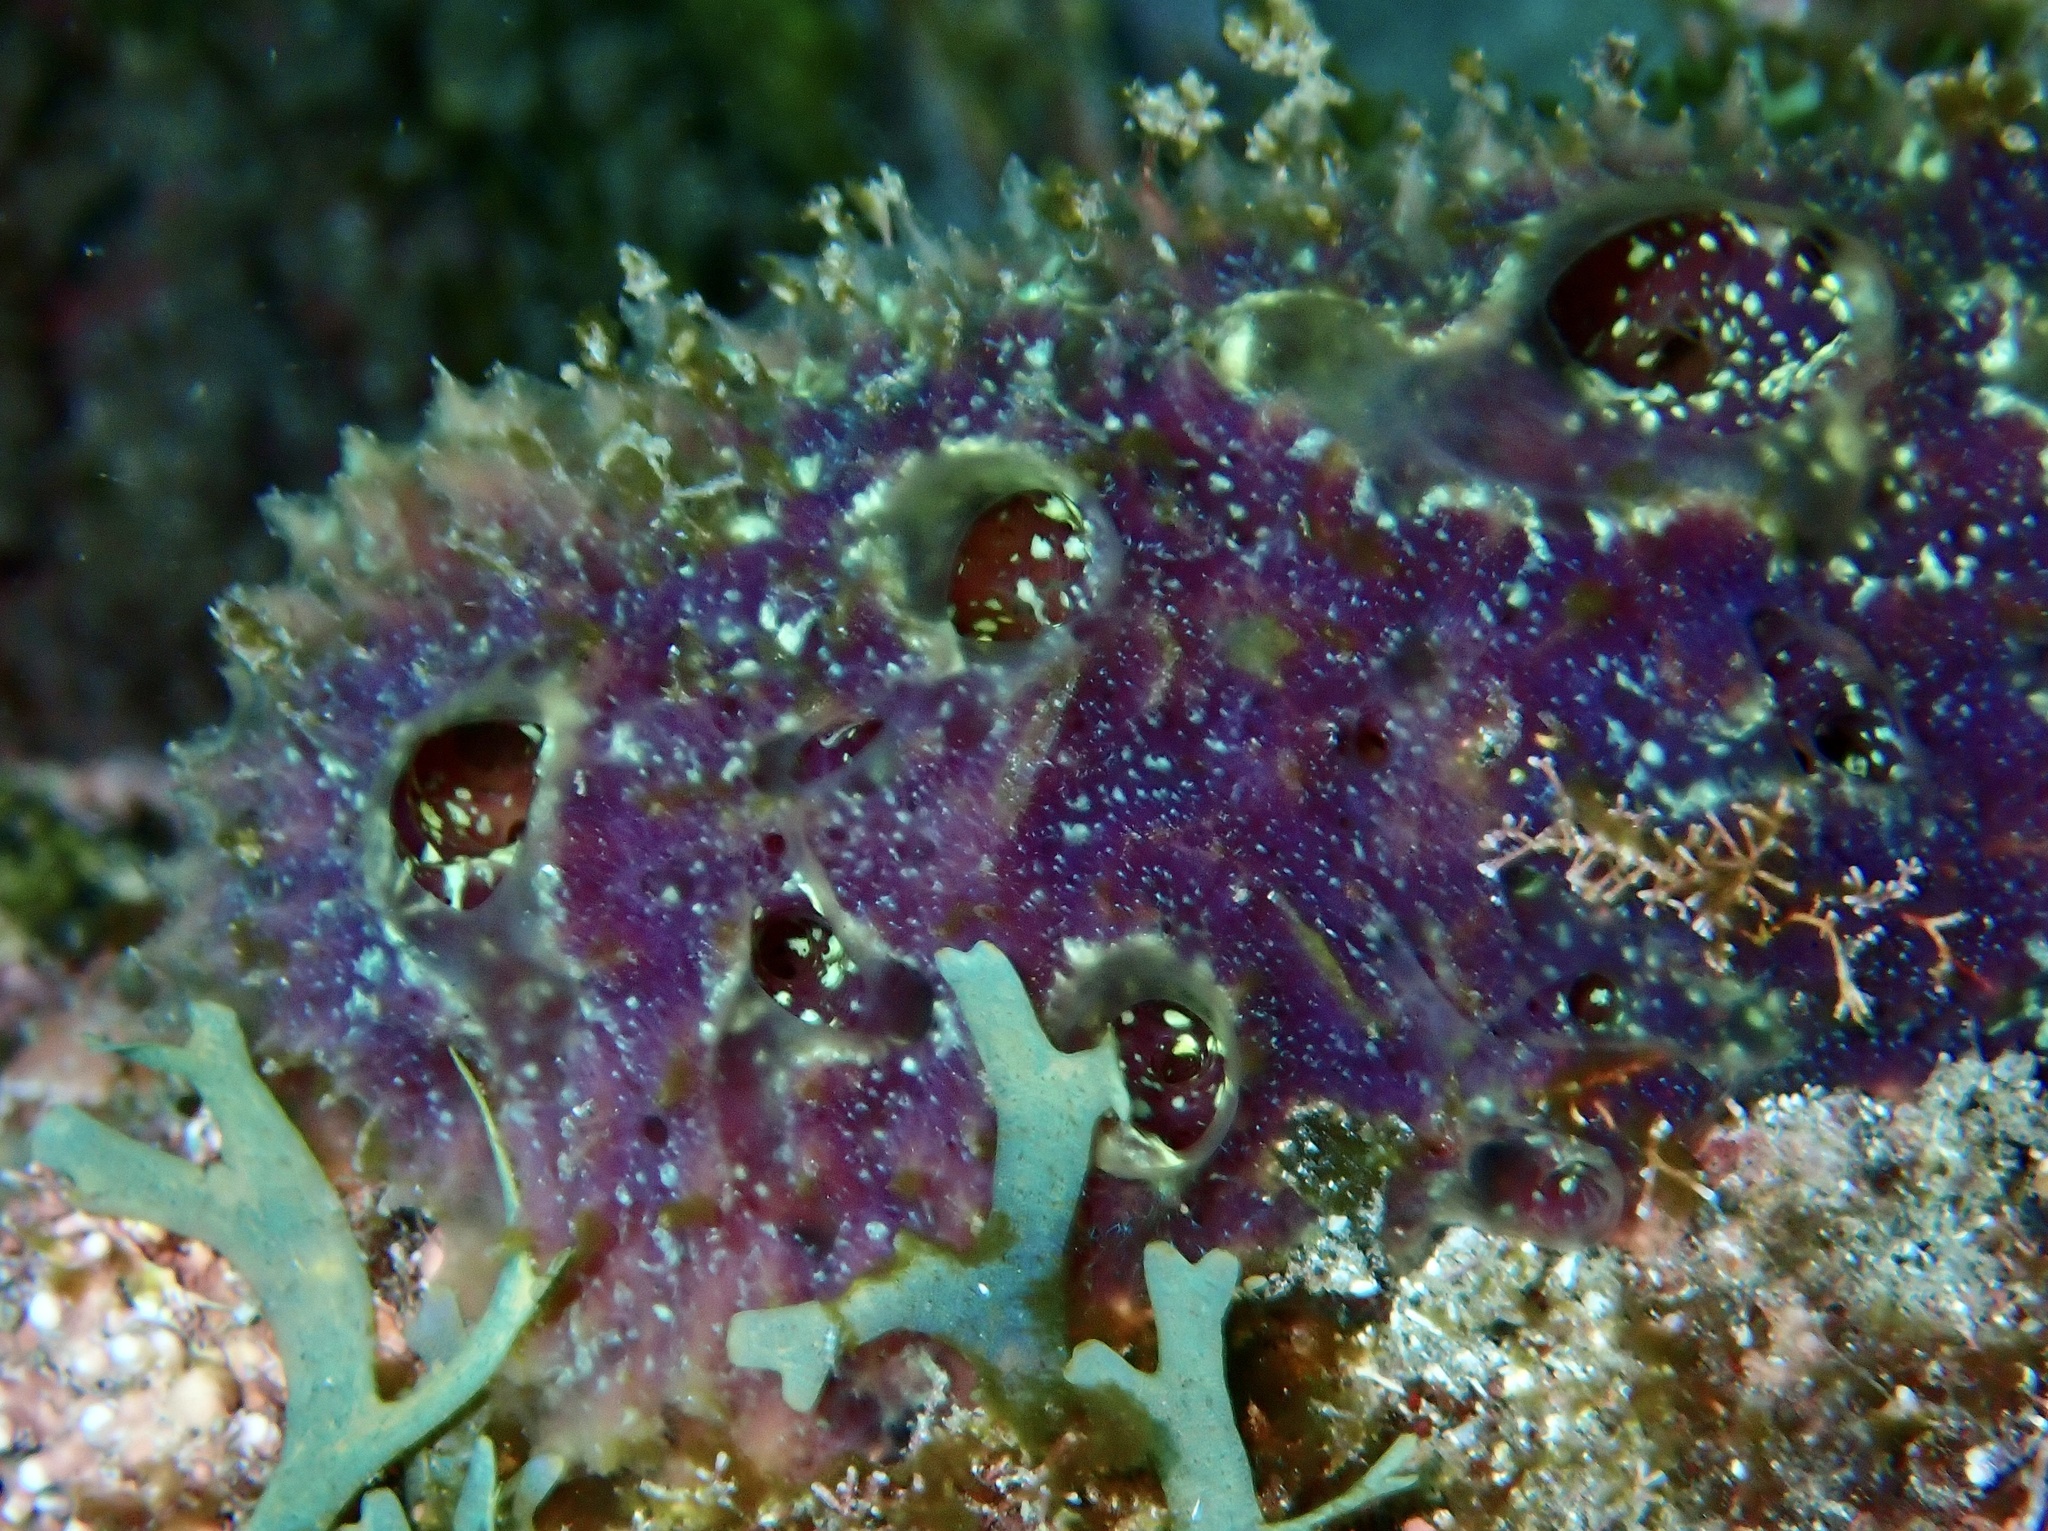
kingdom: Animalia
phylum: Porifera
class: Demospongiae
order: Poecilosclerida
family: Mycalidae
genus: Mycale
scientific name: Mycale laxissima
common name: Strawberry vase sponge
